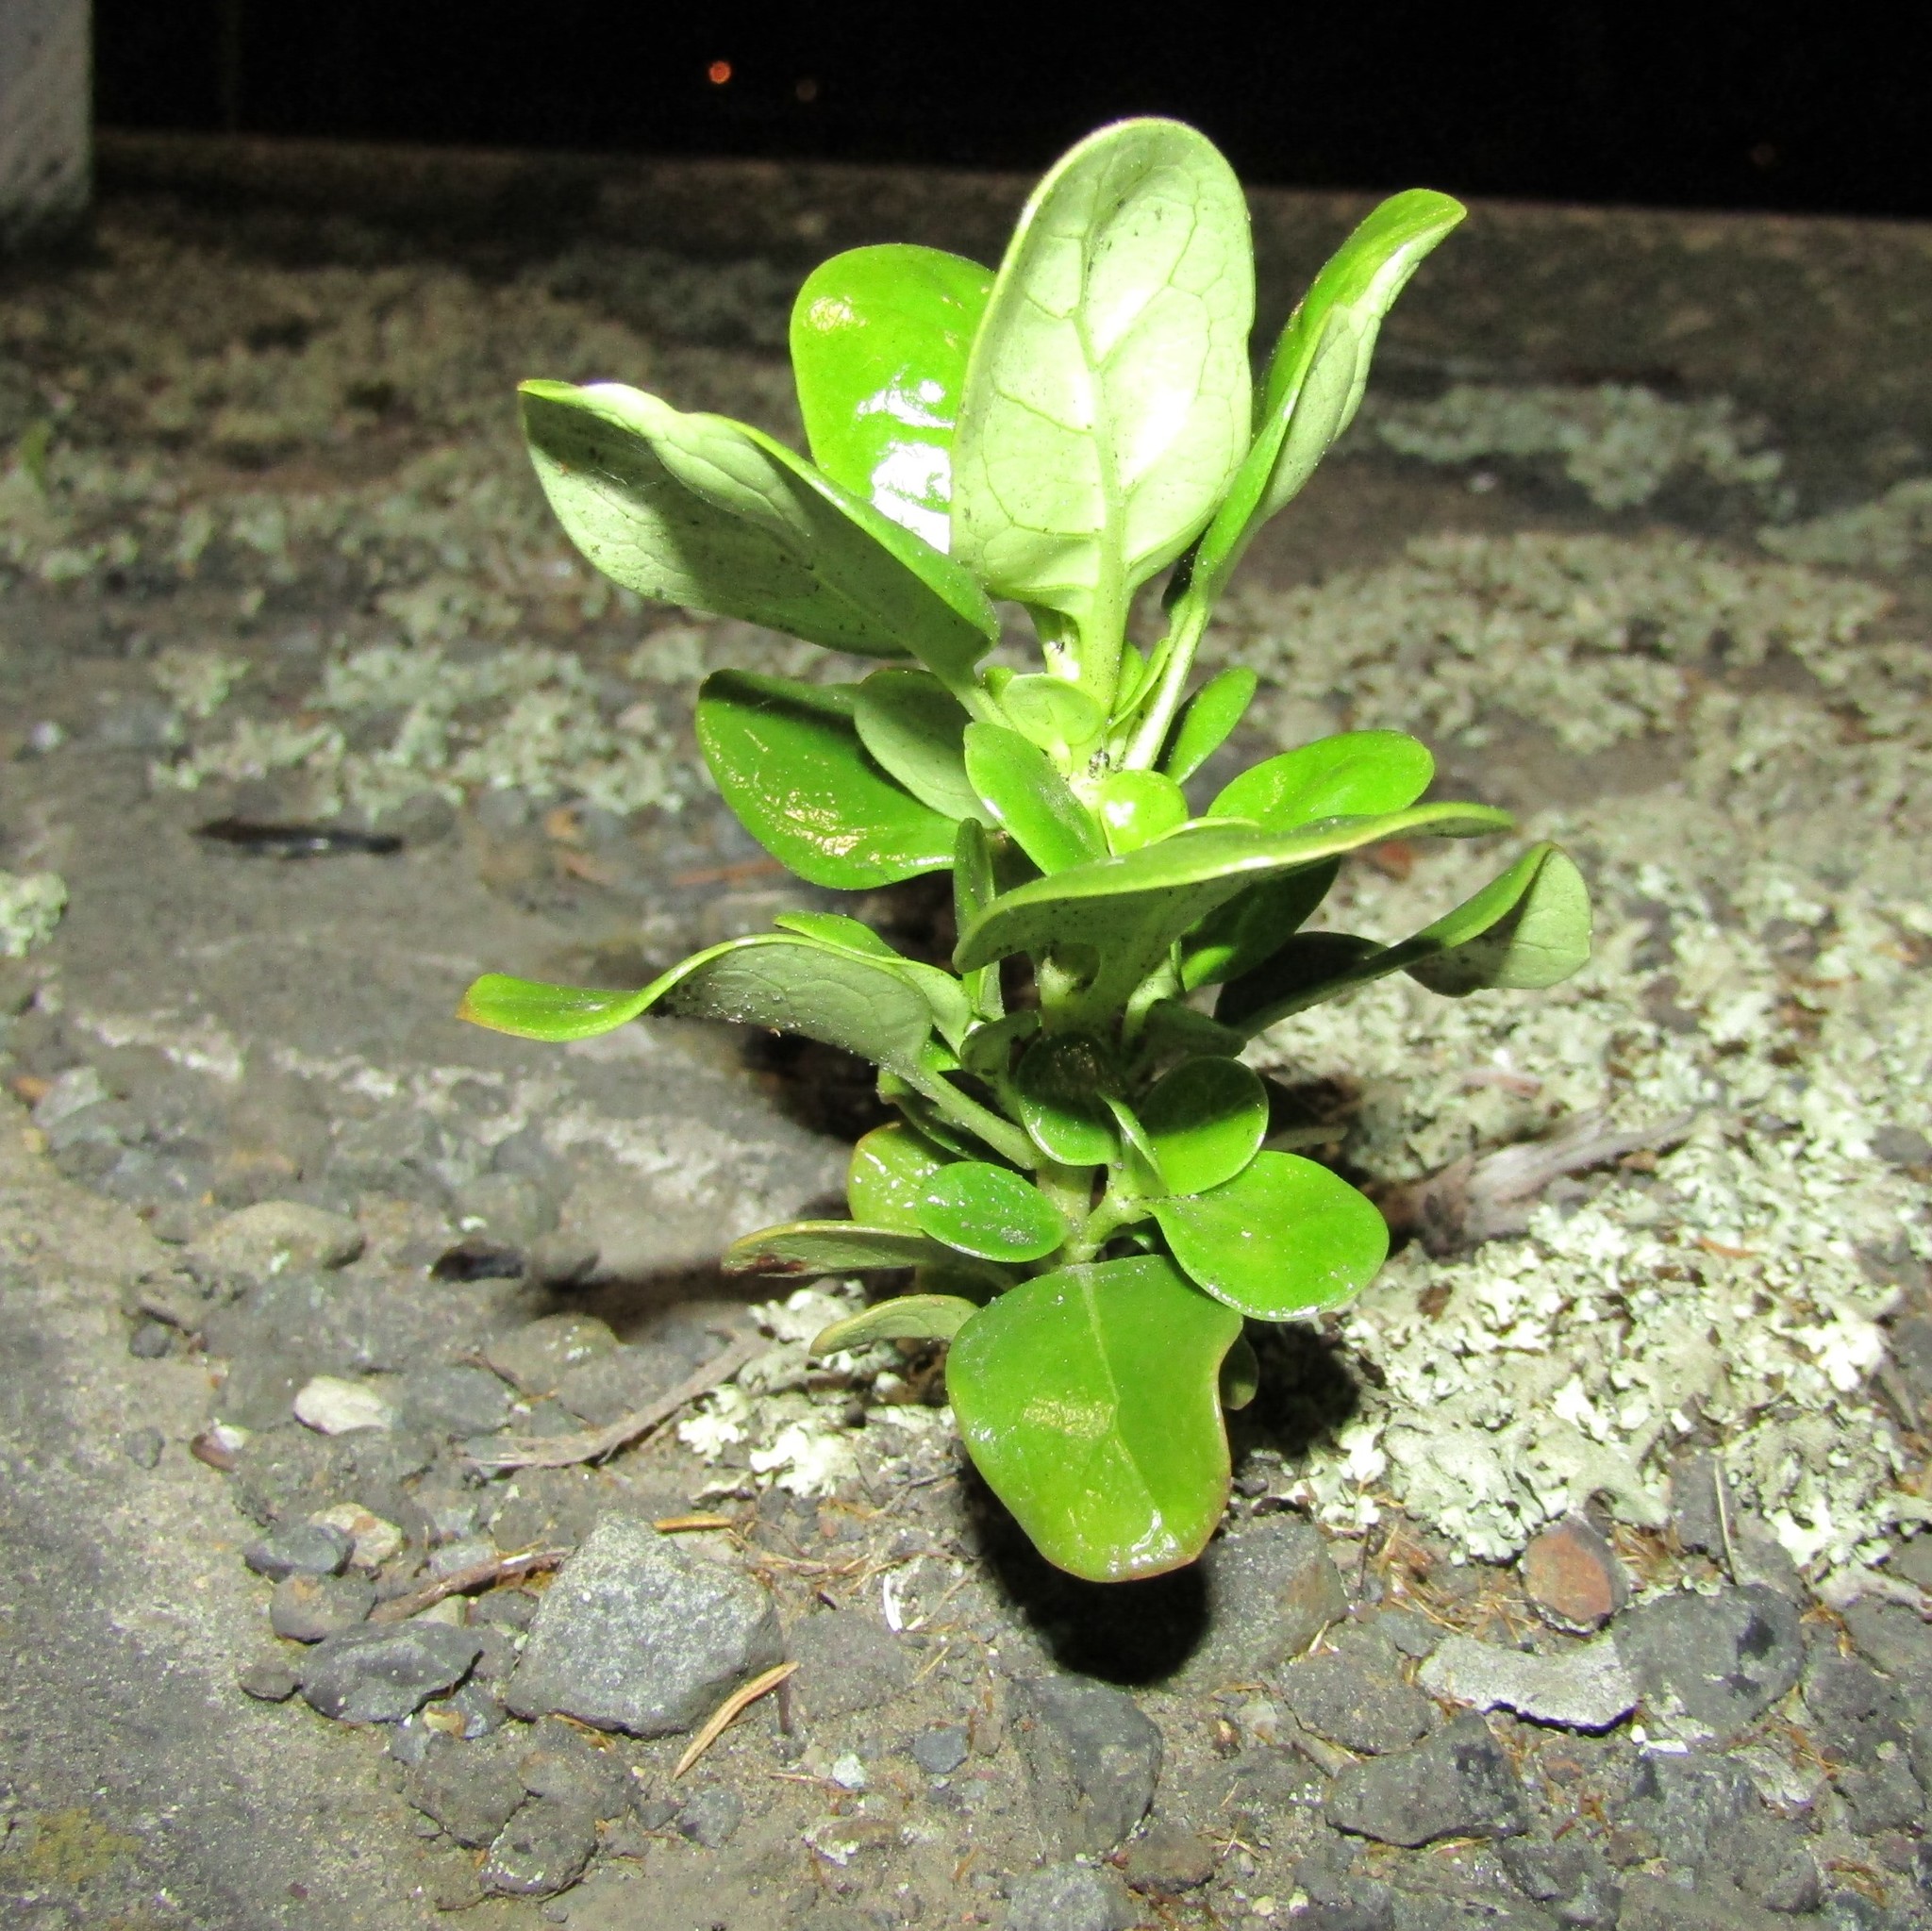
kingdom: Plantae
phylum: Tracheophyta
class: Magnoliopsida
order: Gentianales
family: Rubiaceae
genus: Coprosma
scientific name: Coprosma repens
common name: Tree bedstraw
